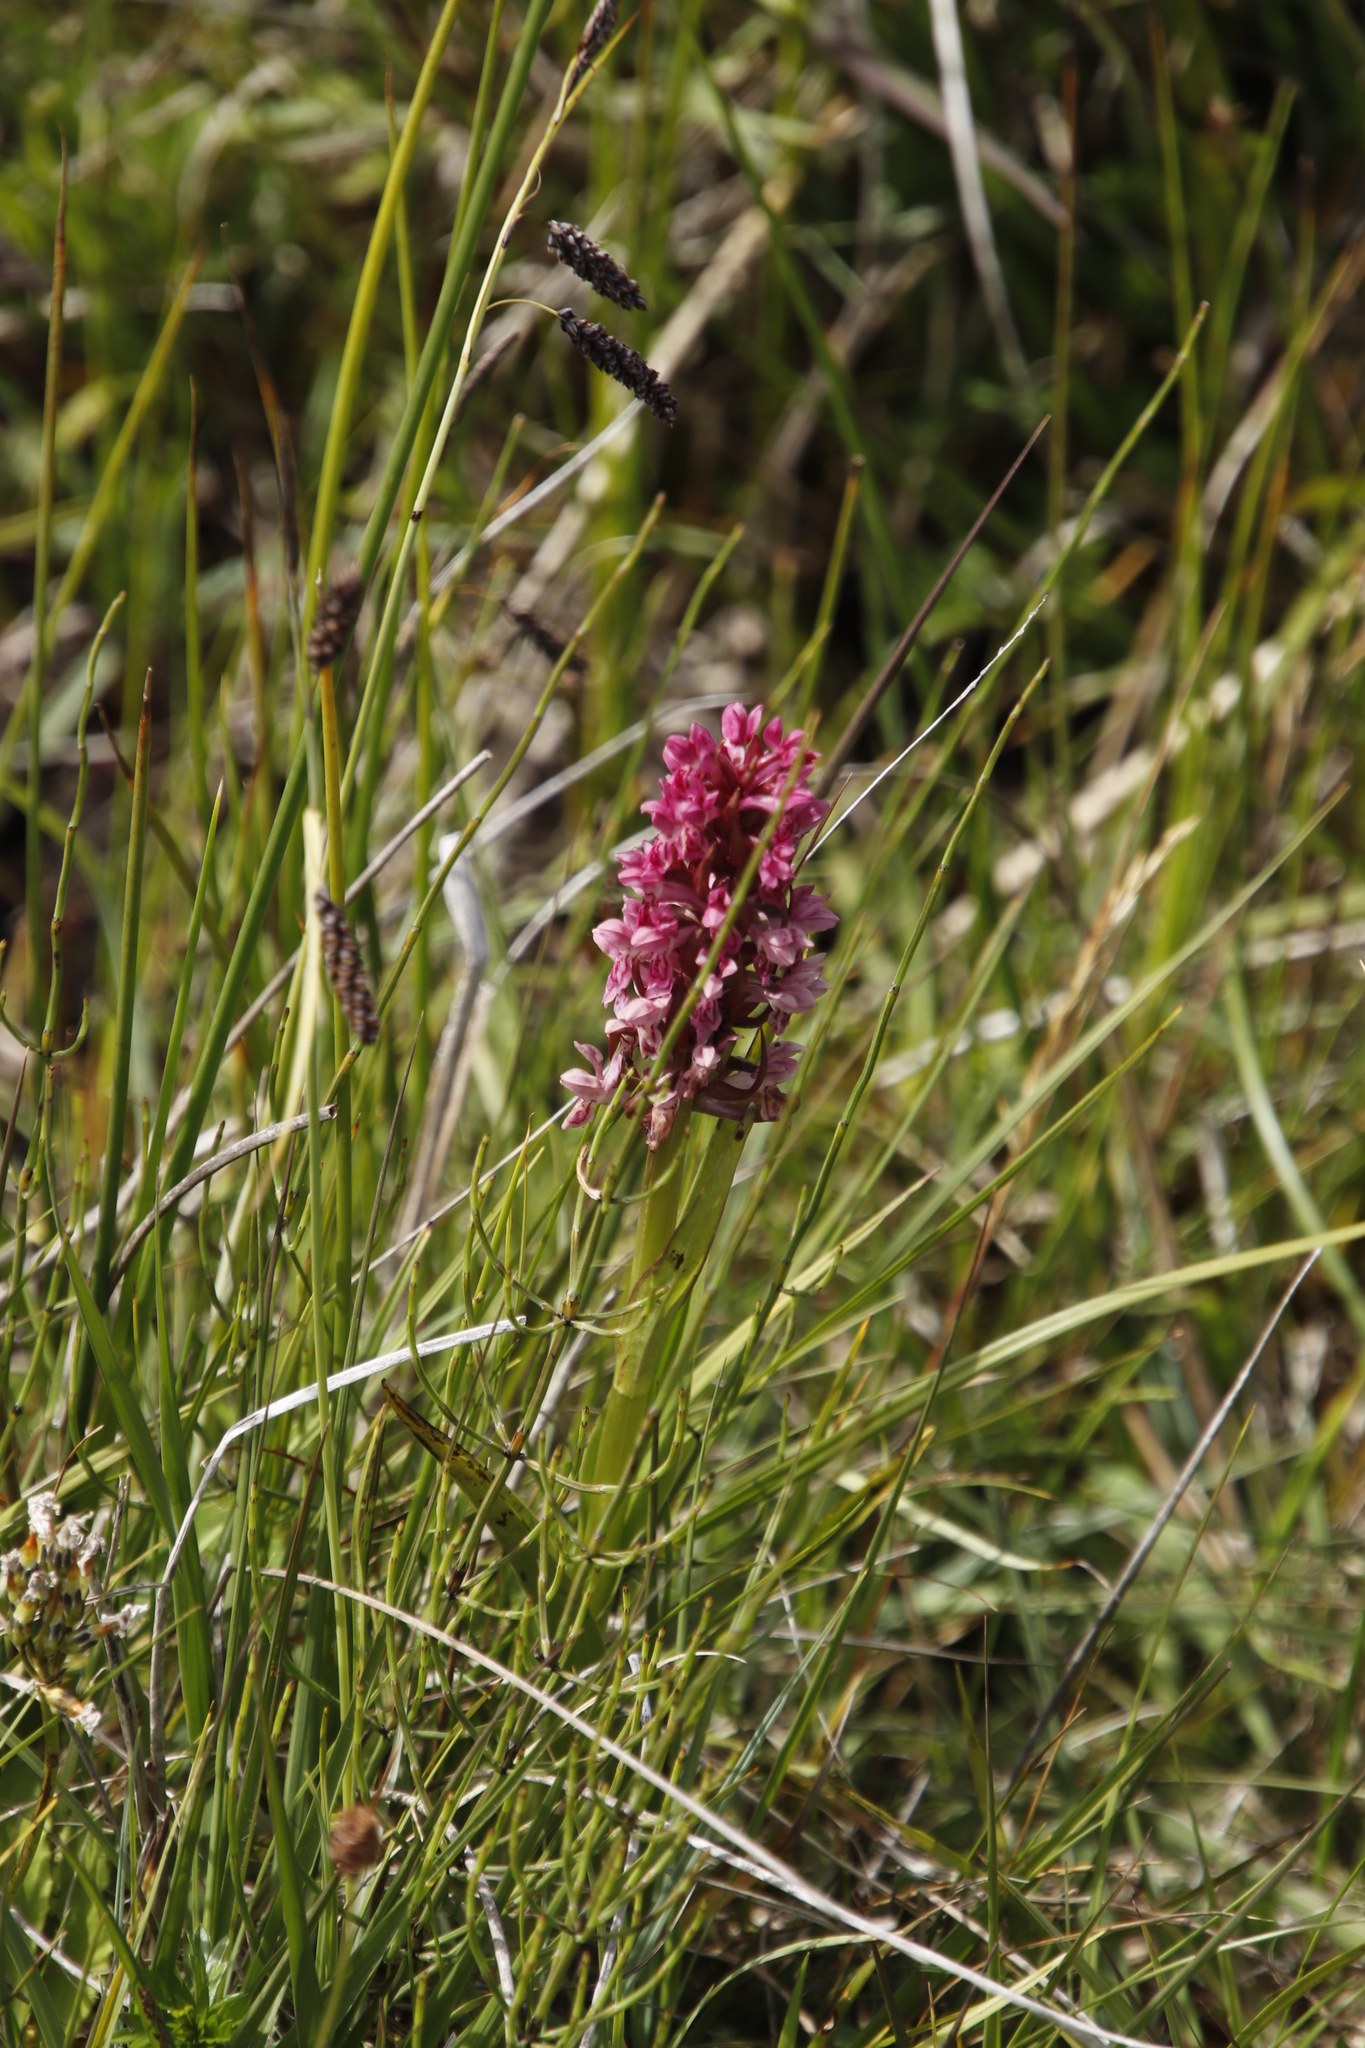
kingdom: Plantae
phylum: Tracheophyta
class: Liliopsida
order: Asparagales
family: Orchidaceae
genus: Dactylorhiza
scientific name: Dactylorhiza incarnata
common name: Early marsh-orchid
